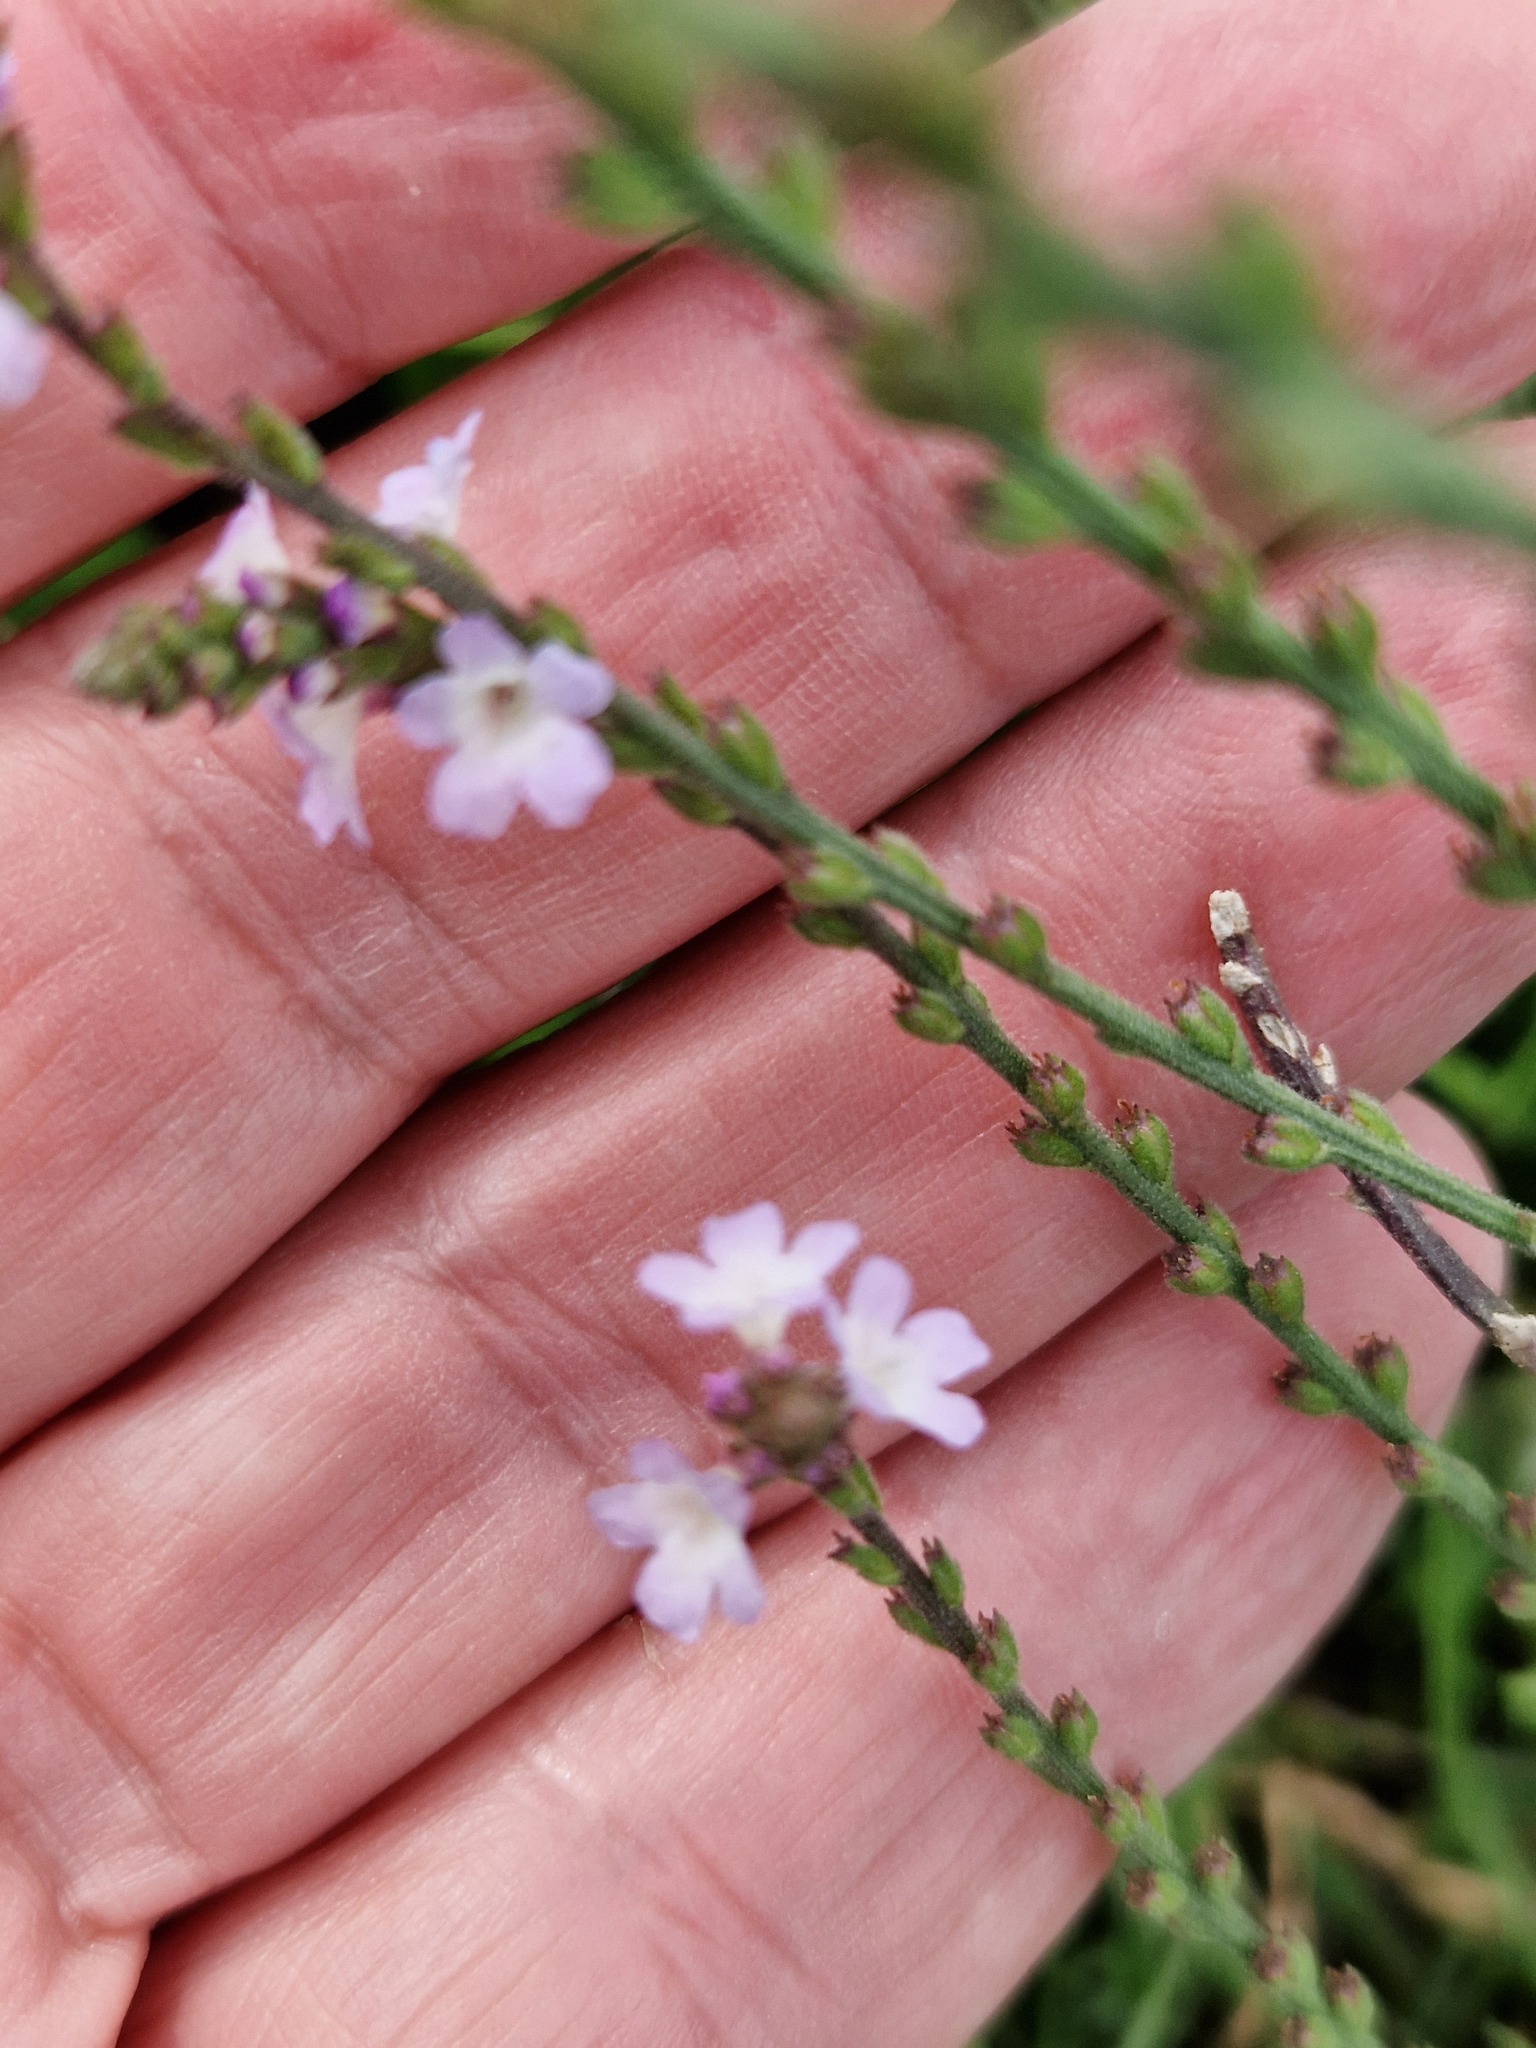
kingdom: Plantae
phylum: Tracheophyta
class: Magnoliopsida
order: Lamiales
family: Verbenaceae
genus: Verbena
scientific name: Verbena officinalis
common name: Vervain
